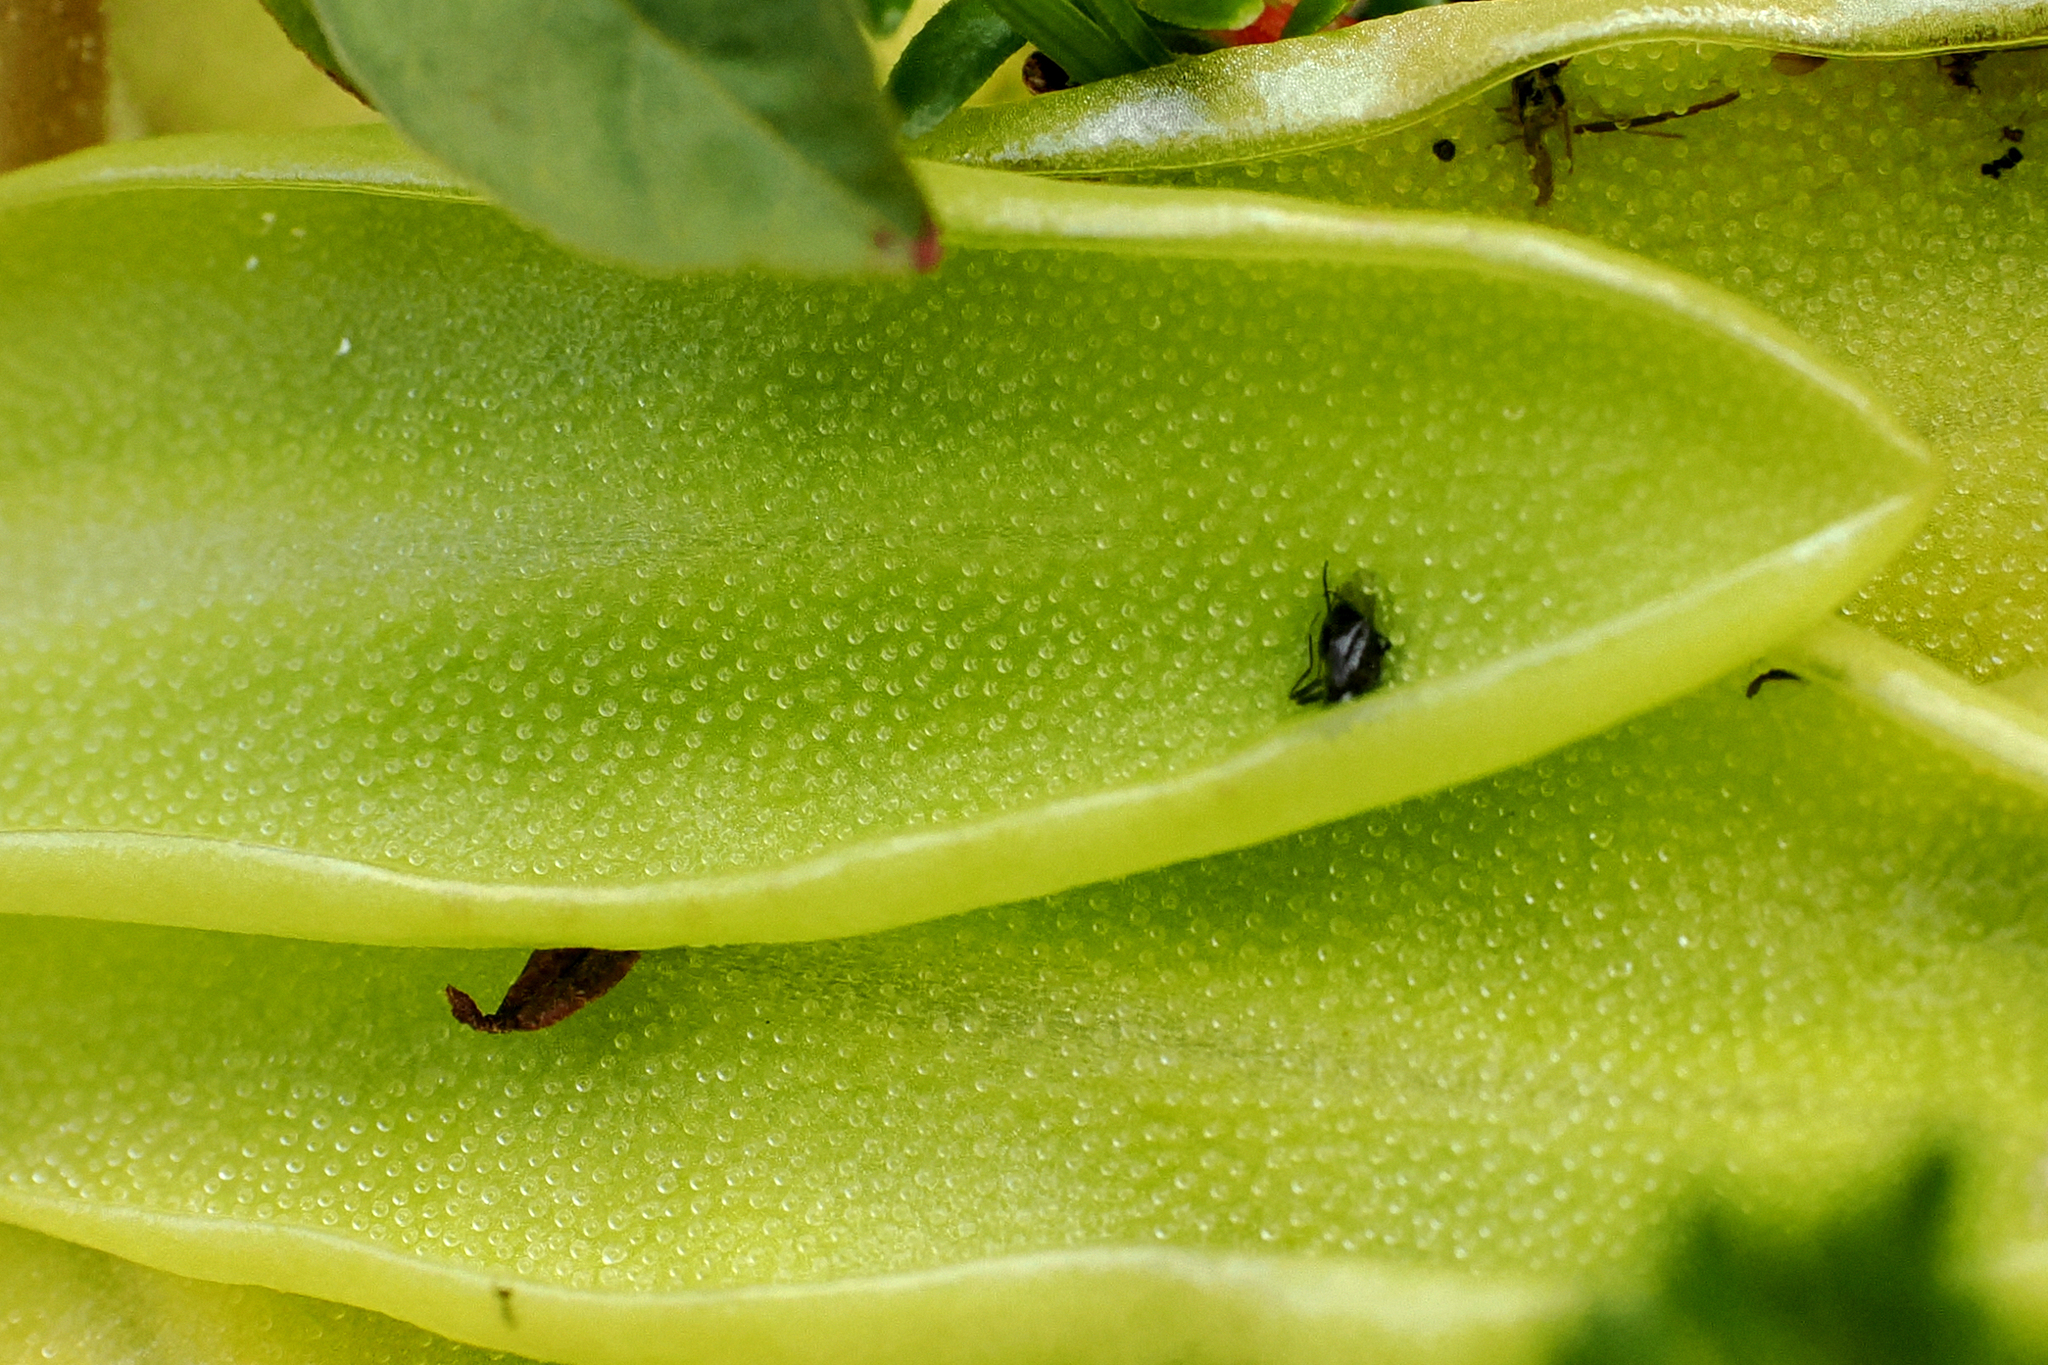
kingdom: Plantae
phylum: Tracheophyta
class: Magnoliopsida
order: Lamiales
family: Lentibulariaceae
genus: Pinguicula
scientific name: Pinguicula vulgaris
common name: Common butterwort
